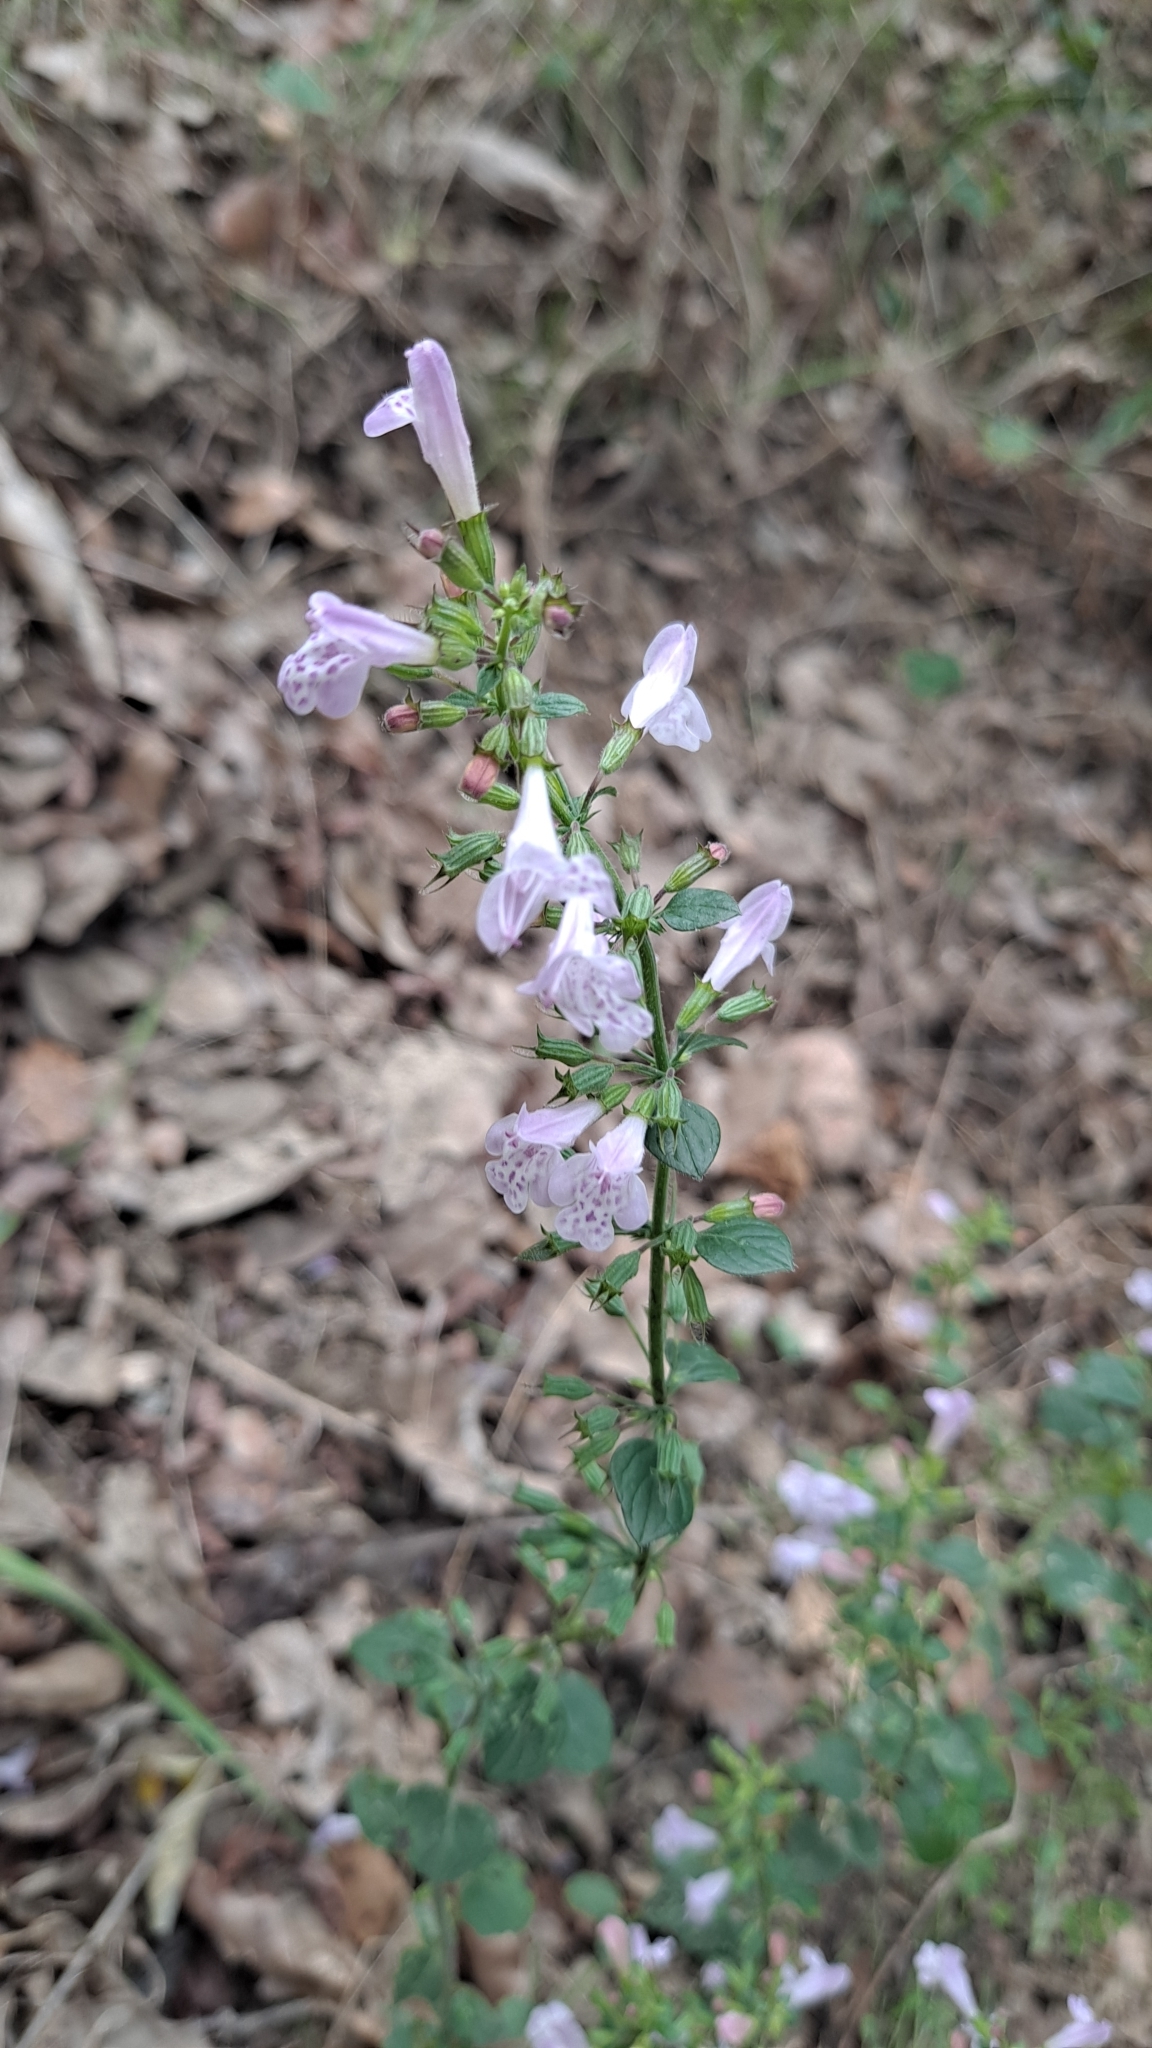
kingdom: Plantae
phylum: Tracheophyta
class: Magnoliopsida
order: Lamiales
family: Lamiaceae
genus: Clinopodium
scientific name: Clinopodium nepeta
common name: Lesser calamint
